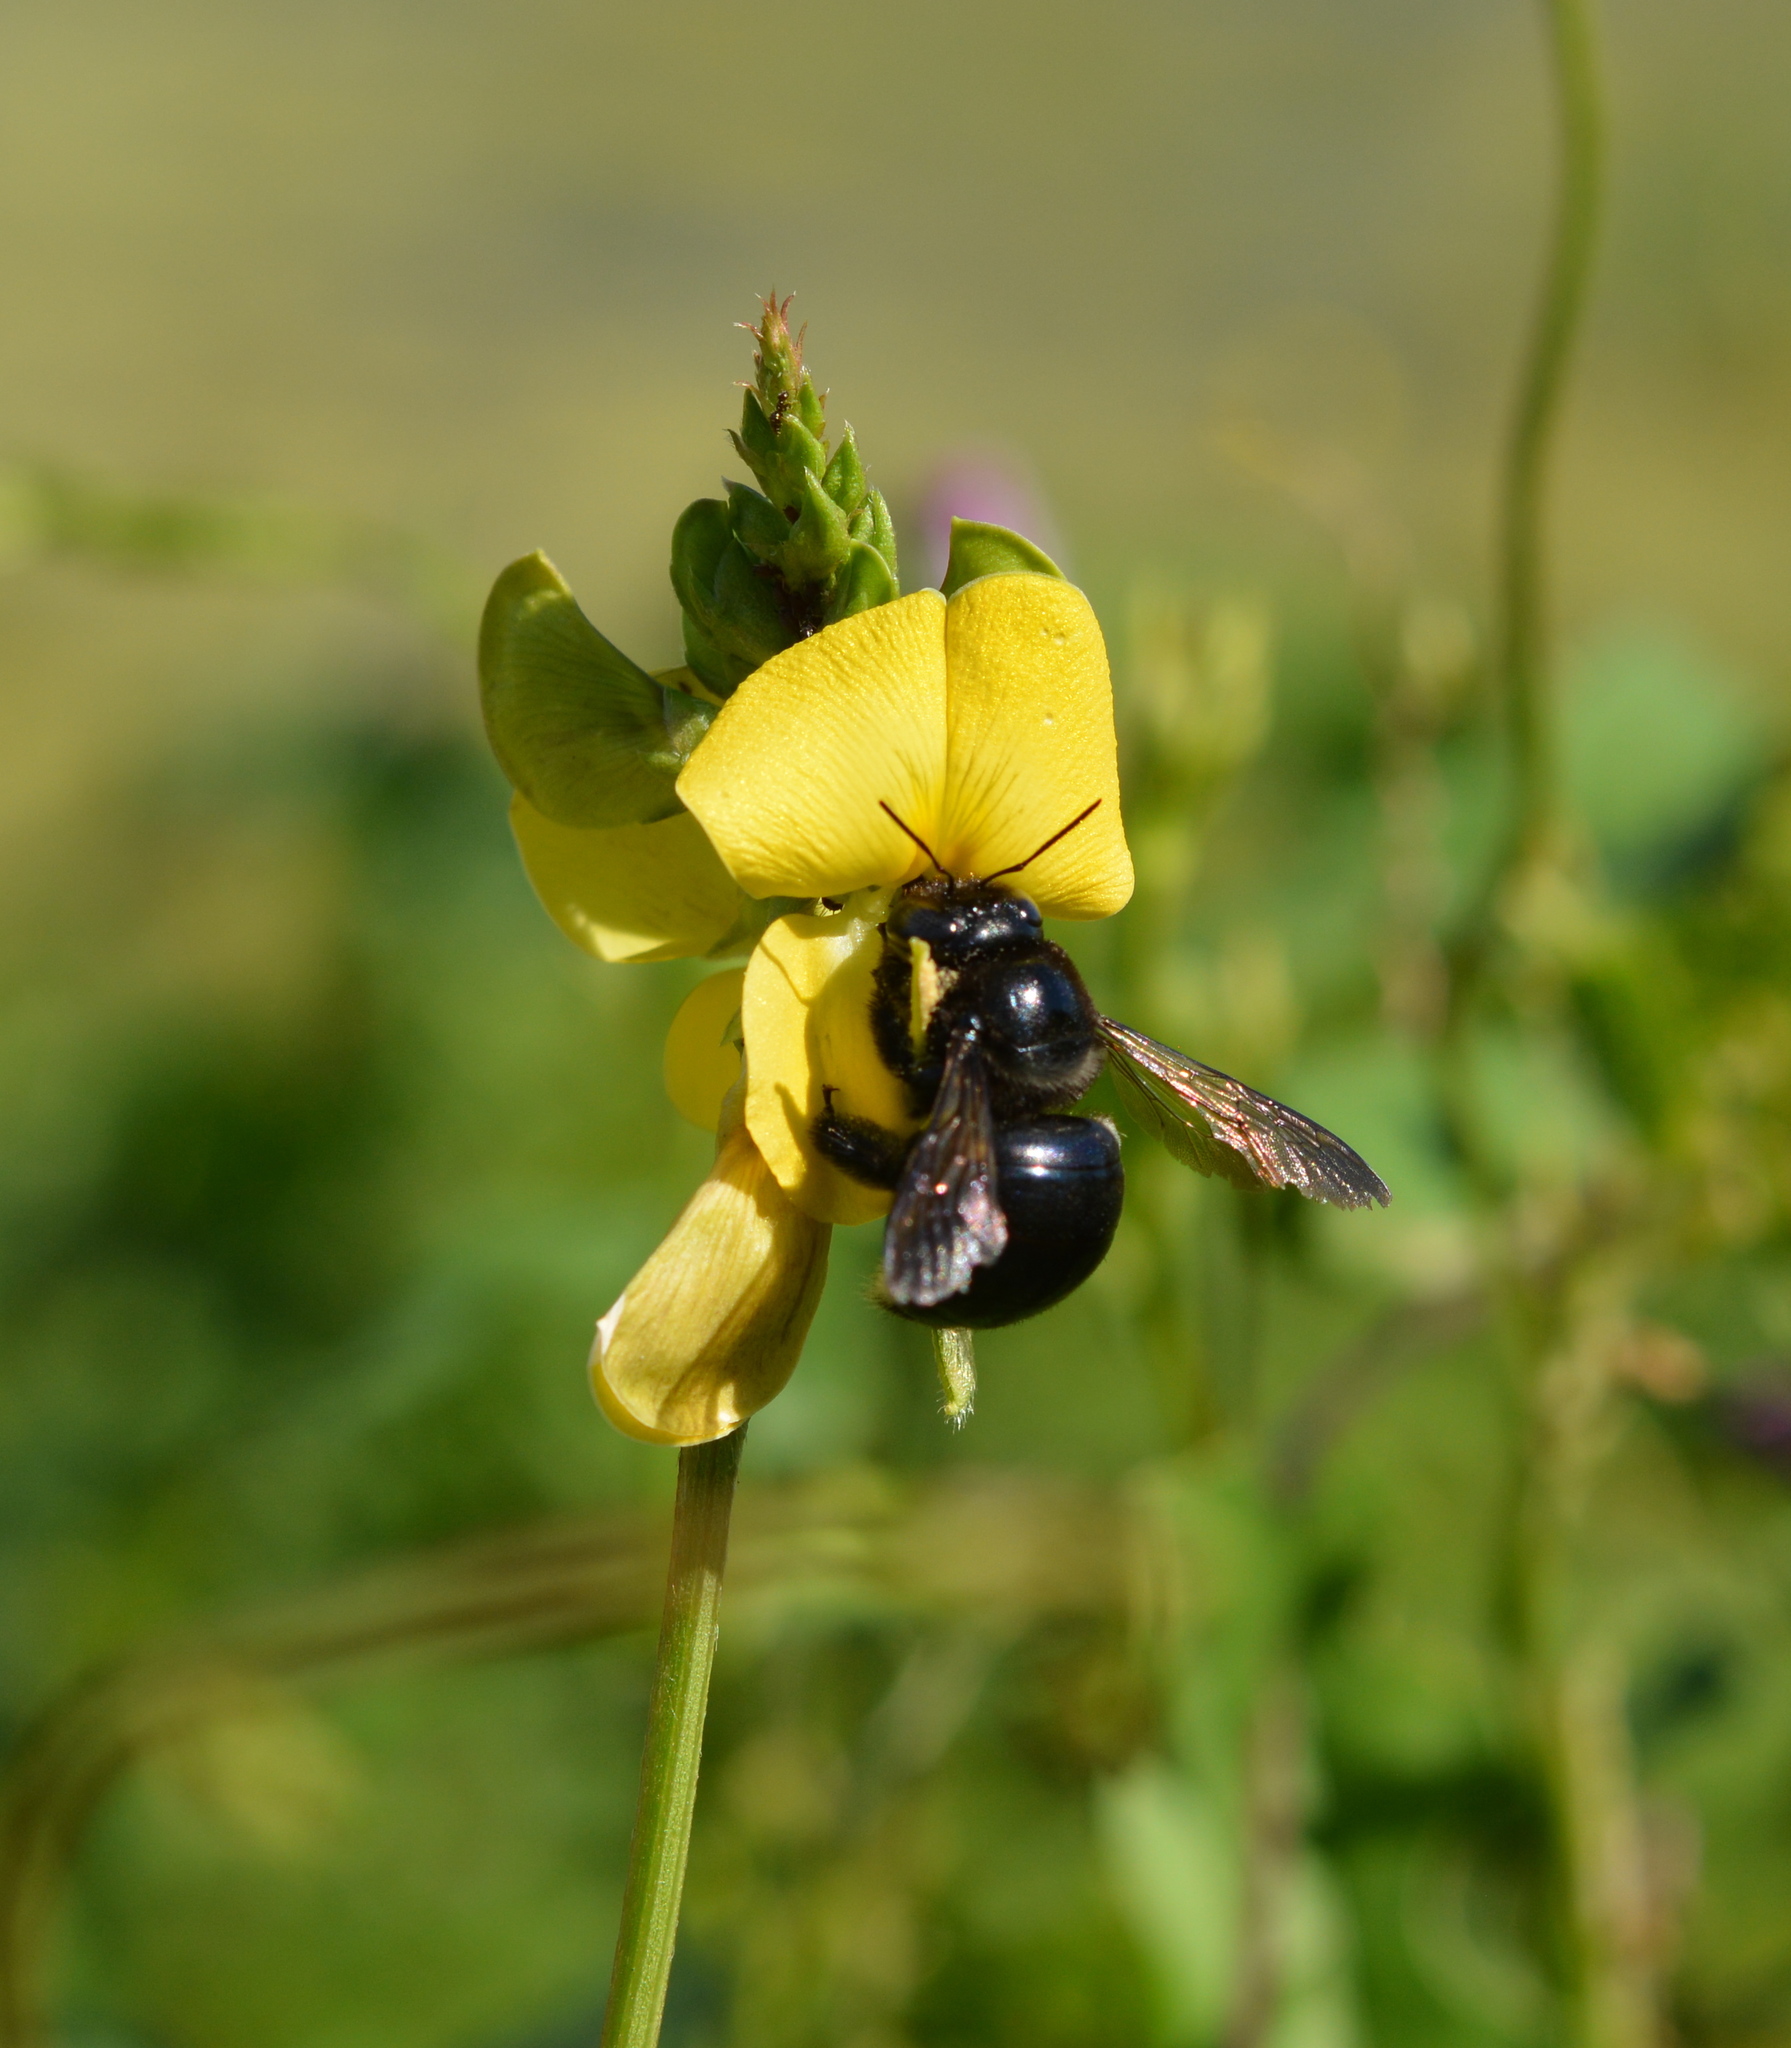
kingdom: Animalia
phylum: Arthropoda
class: Insecta
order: Hymenoptera
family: Apidae
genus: Xylocopa
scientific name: Xylocopa micans
